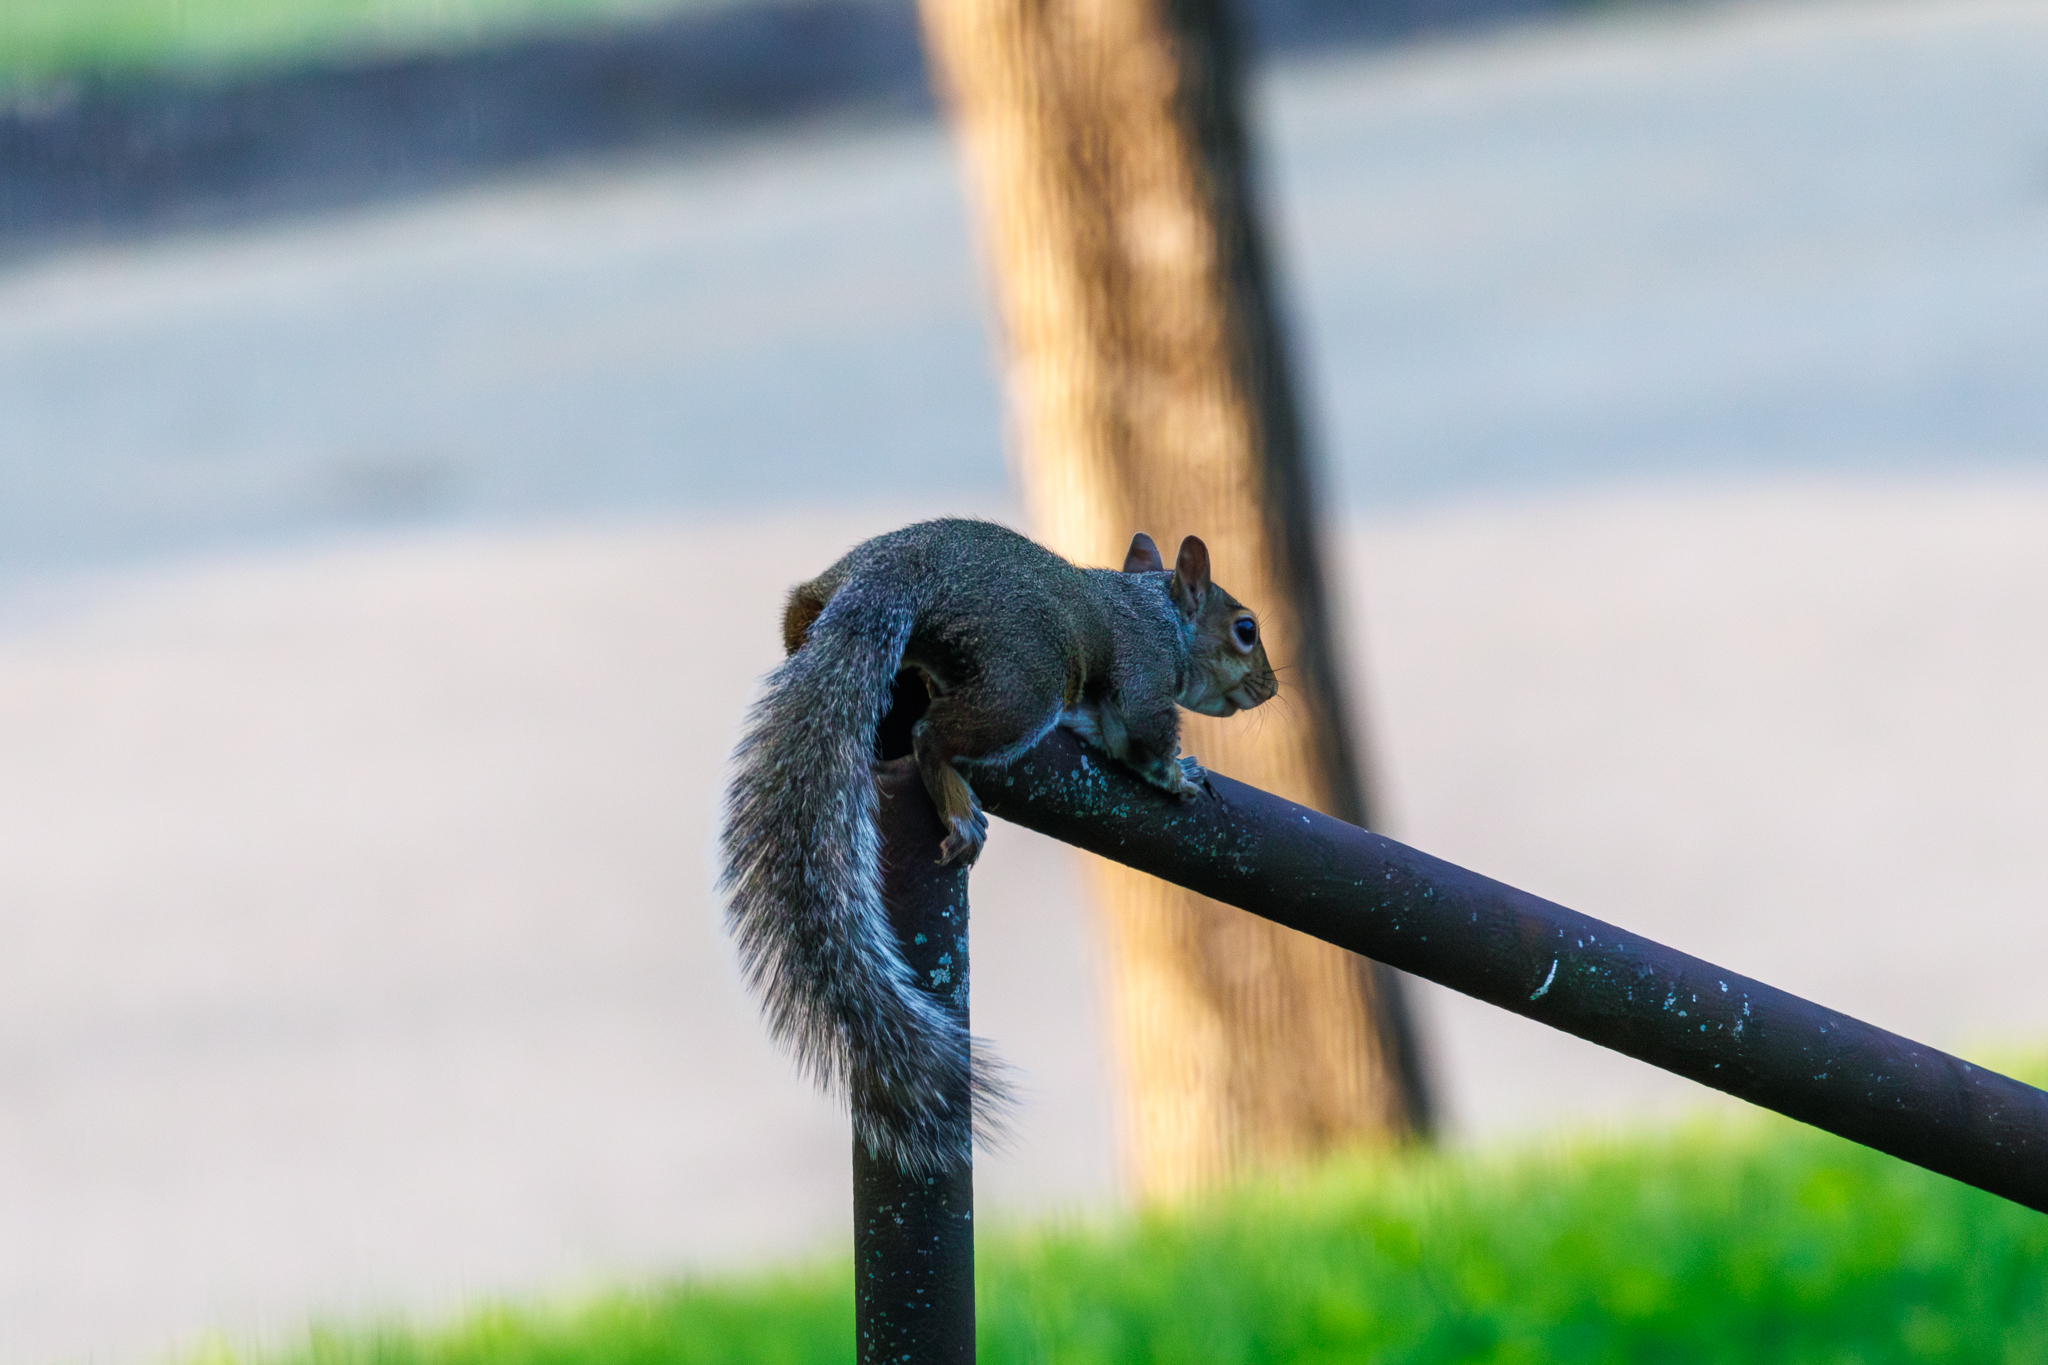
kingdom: Animalia
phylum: Chordata
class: Mammalia
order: Rodentia
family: Sciuridae
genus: Sciurus
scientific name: Sciurus carolinensis
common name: Eastern gray squirrel
